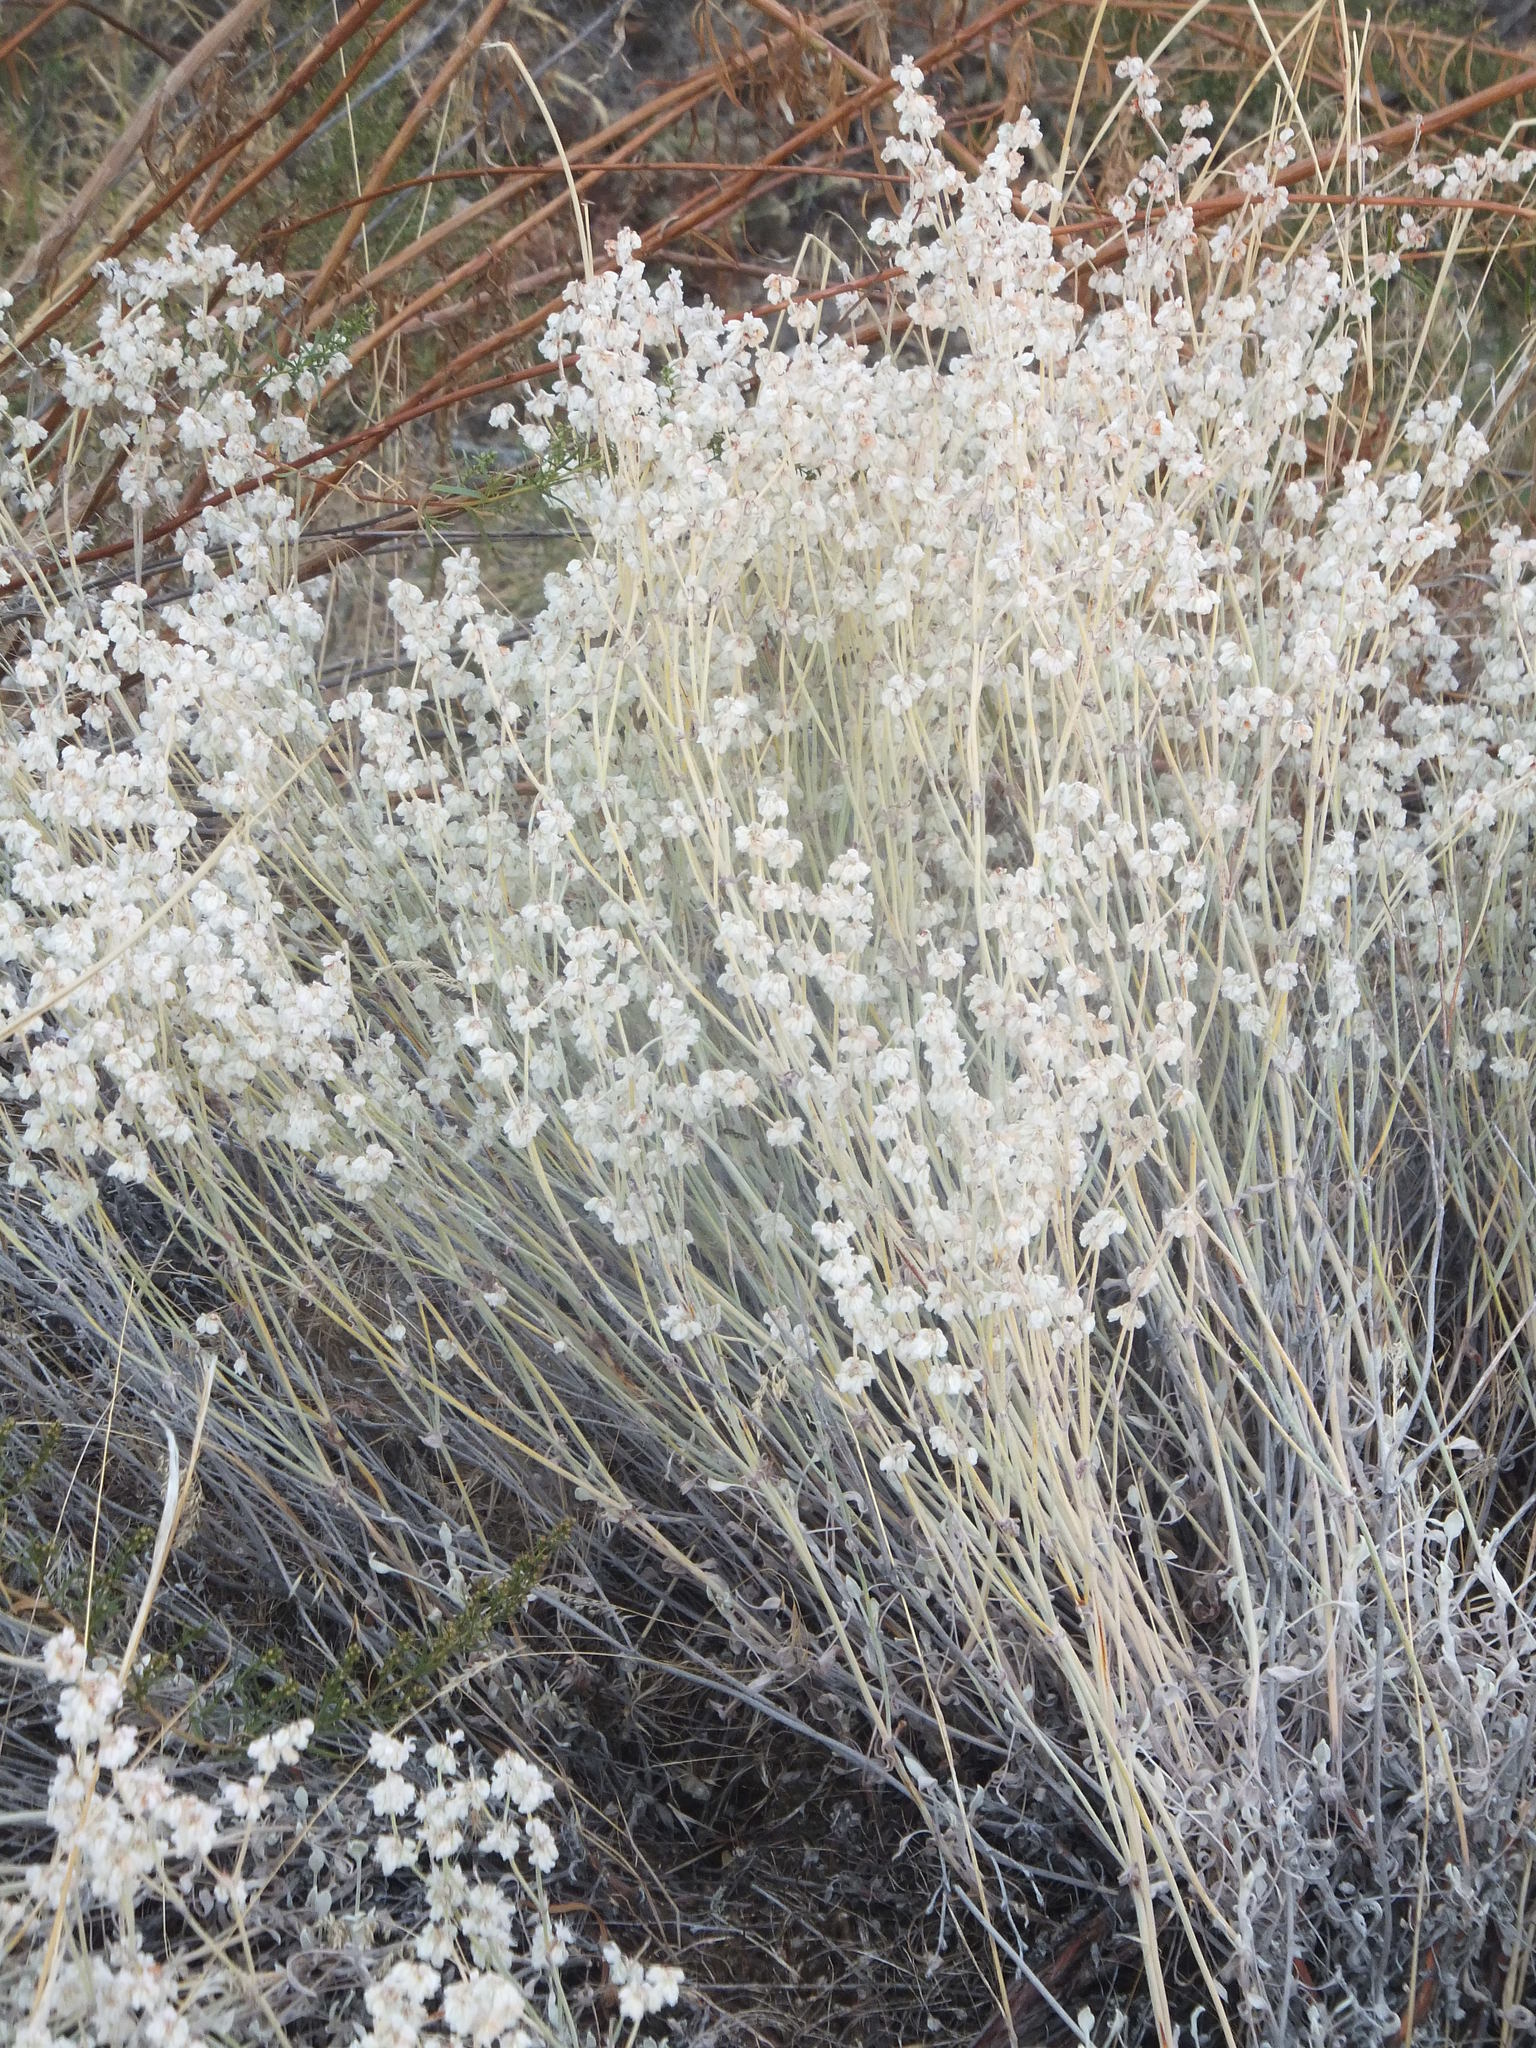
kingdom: Plantae
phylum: Tracheophyta
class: Magnoliopsida
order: Caryophyllales
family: Polygonaceae
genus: Eriogonum
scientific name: Eriogonum niveum
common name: Snow wild buckwheat
